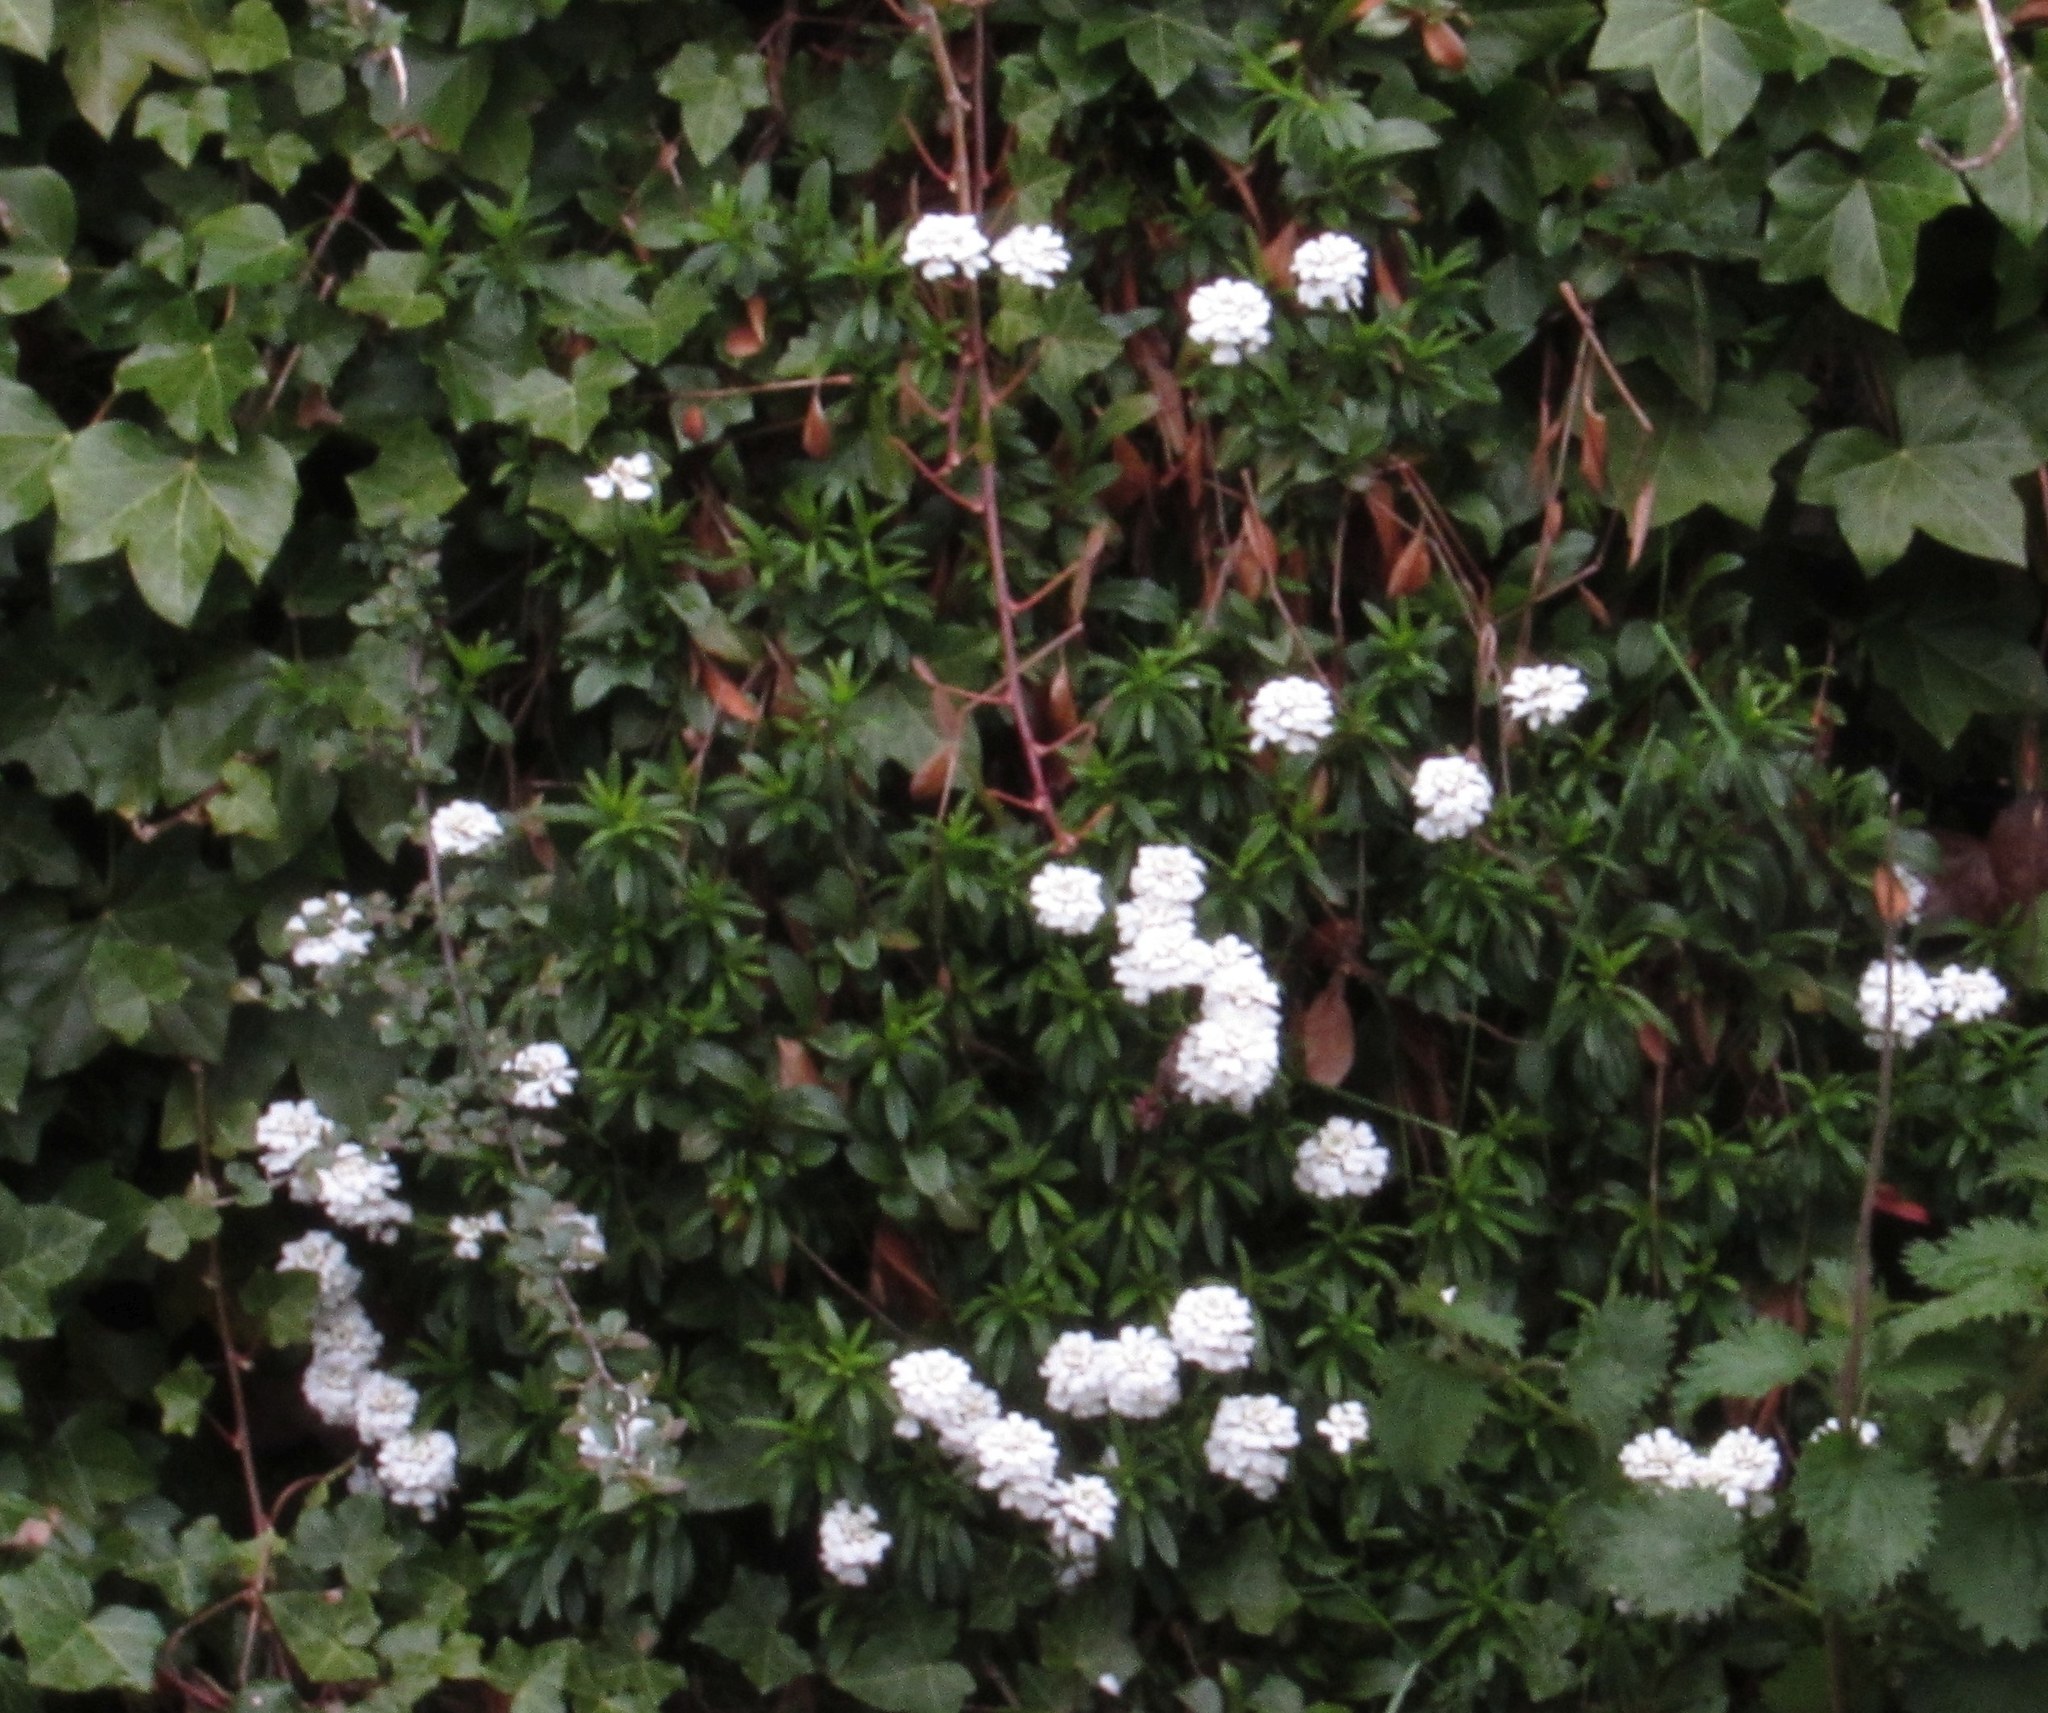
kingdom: Plantae
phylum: Tracheophyta
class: Magnoliopsida
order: Brassicales
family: Brassicaceae
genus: Iberis
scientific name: Iberis sempervirens
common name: Evergreen candytuft
